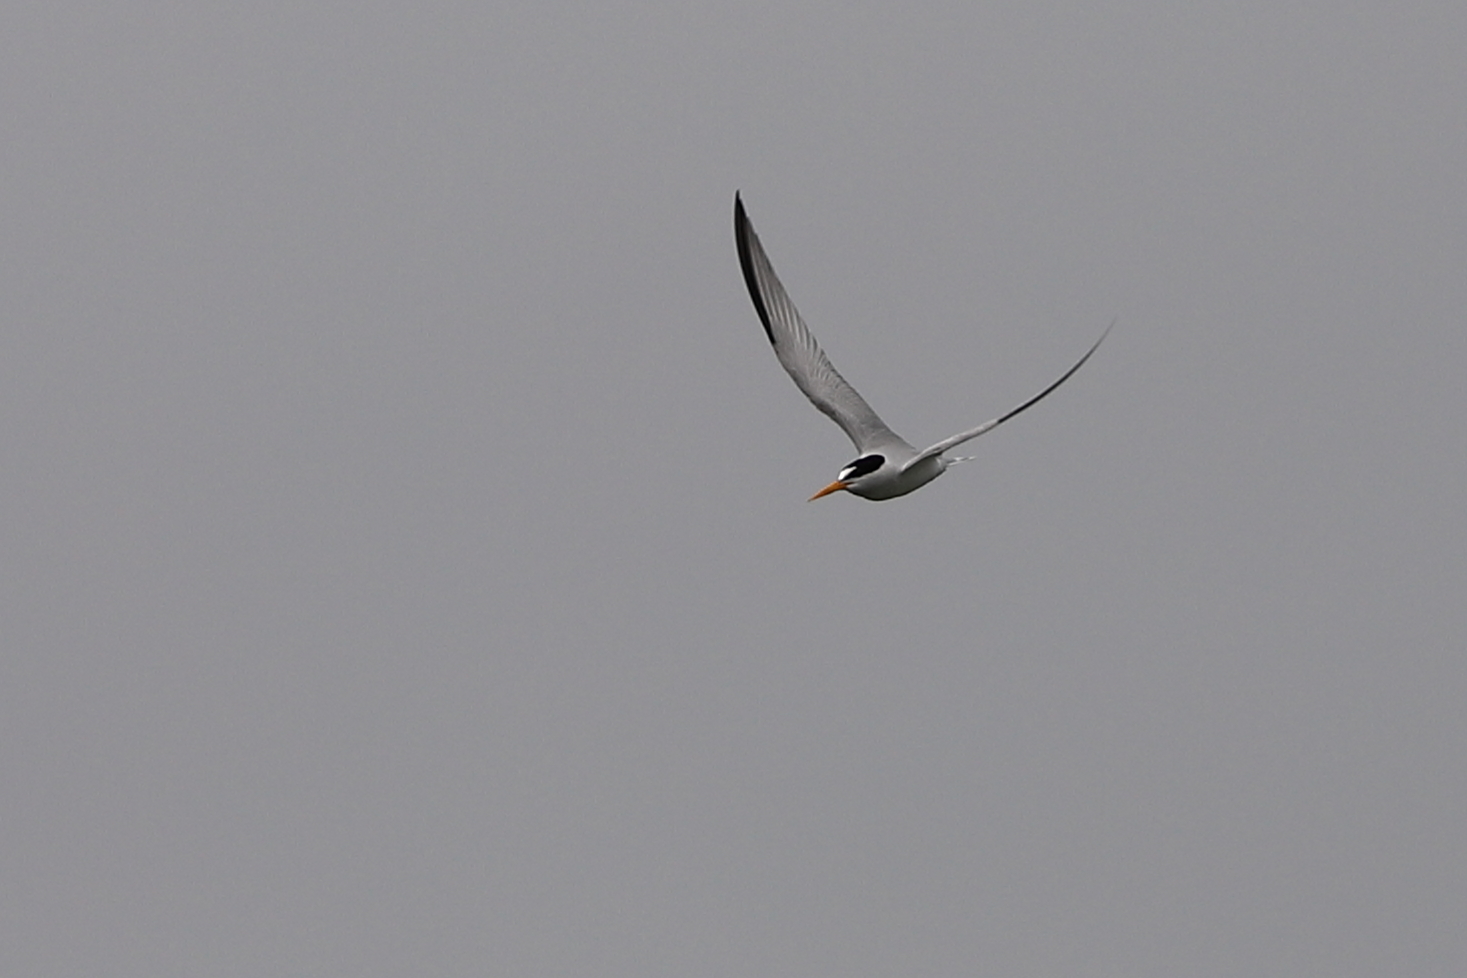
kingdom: Animalia
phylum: Chordata
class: Aves
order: Charadriiformes
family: Laridae
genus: Sternula
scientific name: Sternula antillarum
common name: Least tern
